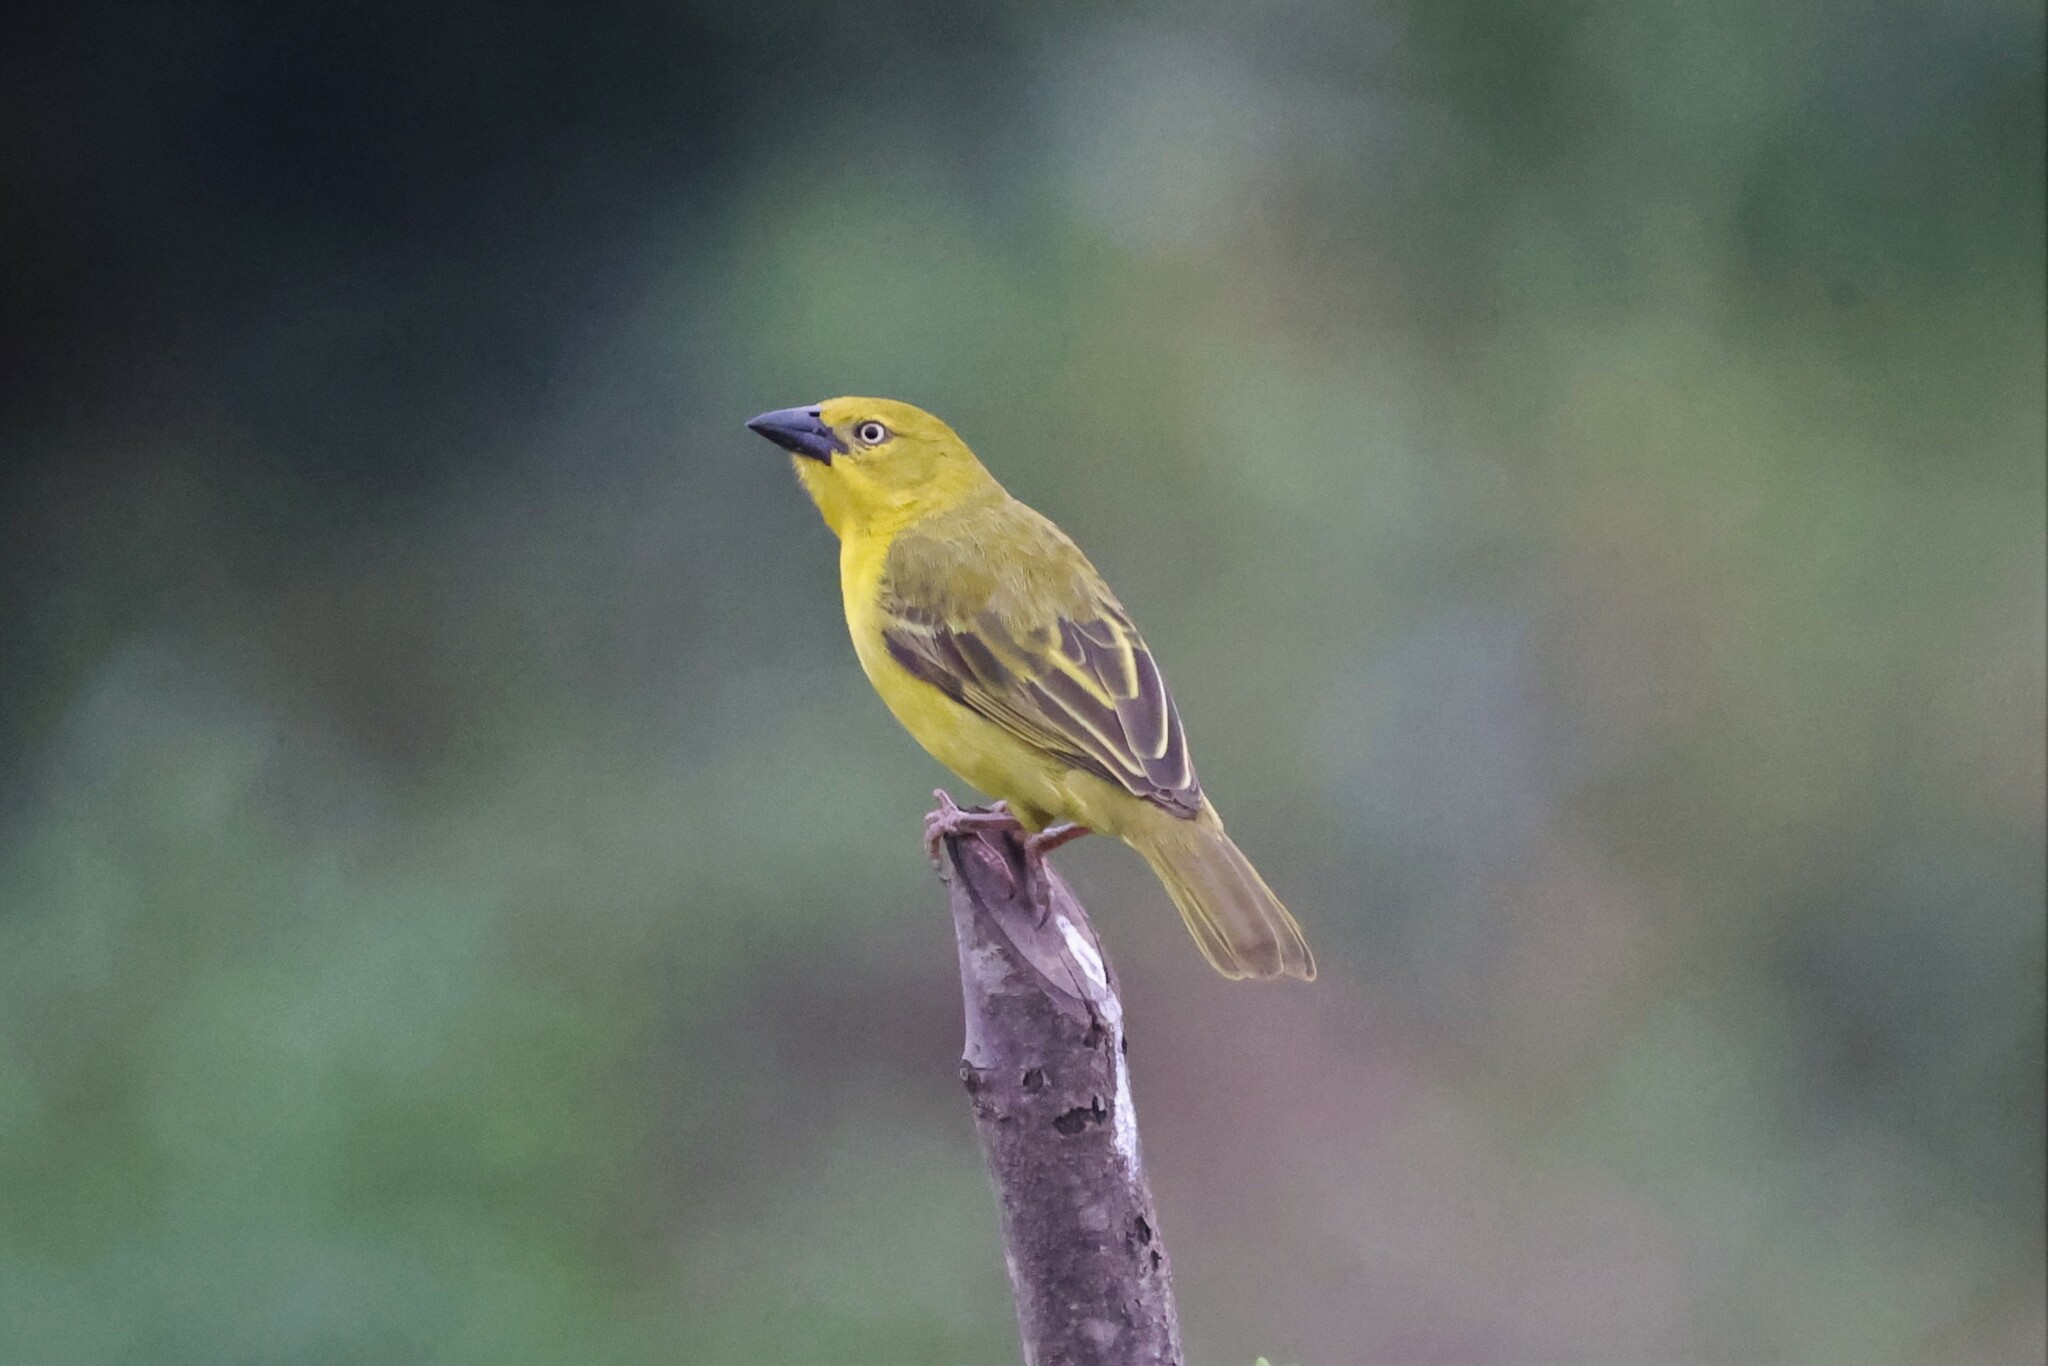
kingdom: Animalia
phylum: Chordata
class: Aves
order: Passeriformes
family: Ploceidae
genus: Ploceus
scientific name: Ploceus xanthops
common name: Holub's golden weaver
